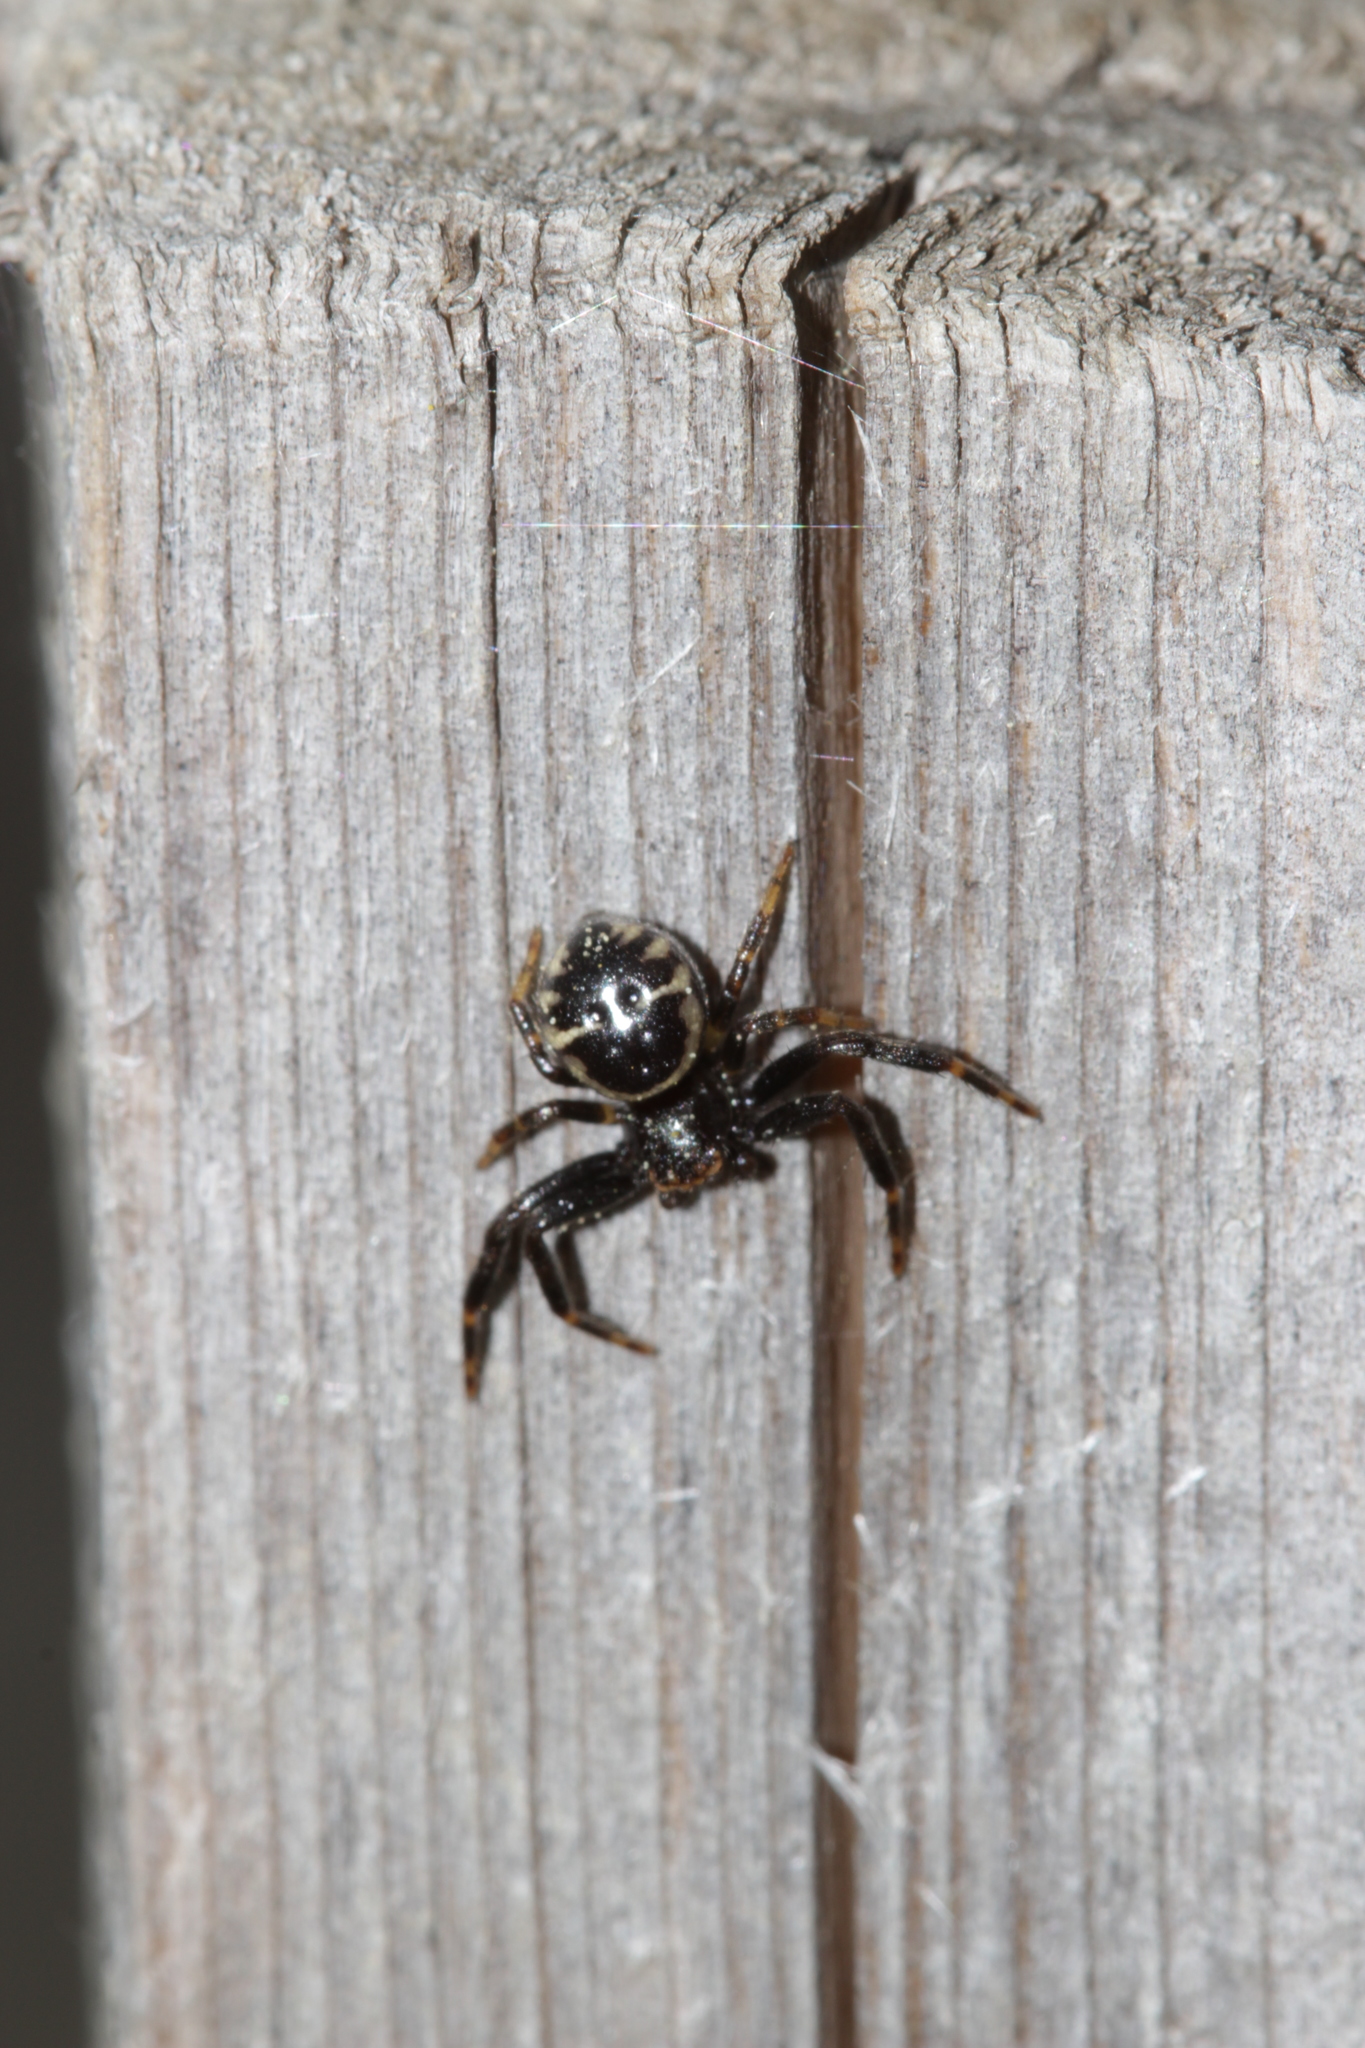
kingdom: Animalia
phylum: Arthropoda
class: Arachnida
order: Araneae
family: Thomisidae
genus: Synema
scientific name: Synema globosum
